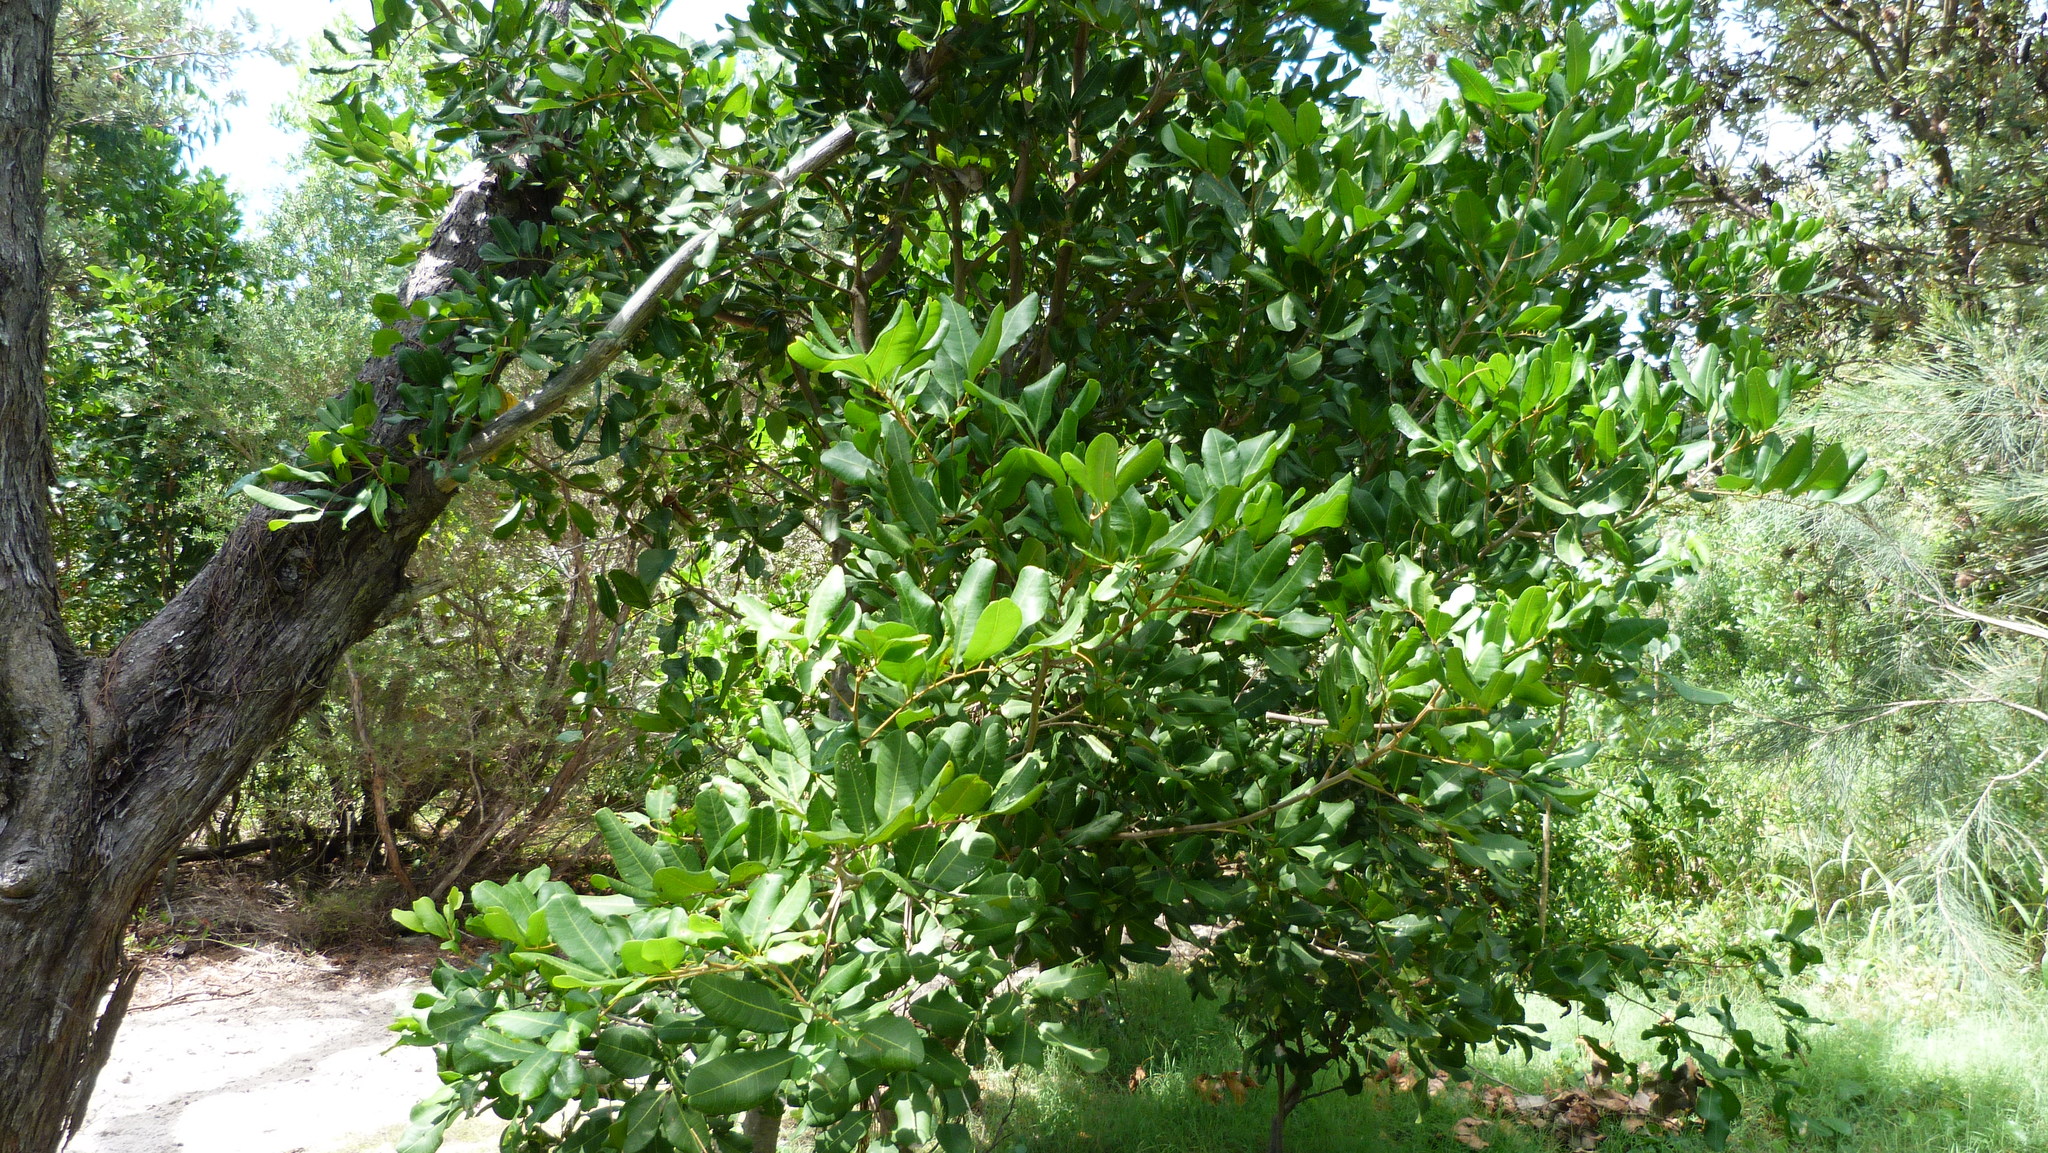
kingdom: Plantae
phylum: Tracheophyta
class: Magnoliopsida
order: Sapindales
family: Sapindaceae
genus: Cupaniopsis
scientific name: Cupaniopsis anacardioides
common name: Carrotwood
